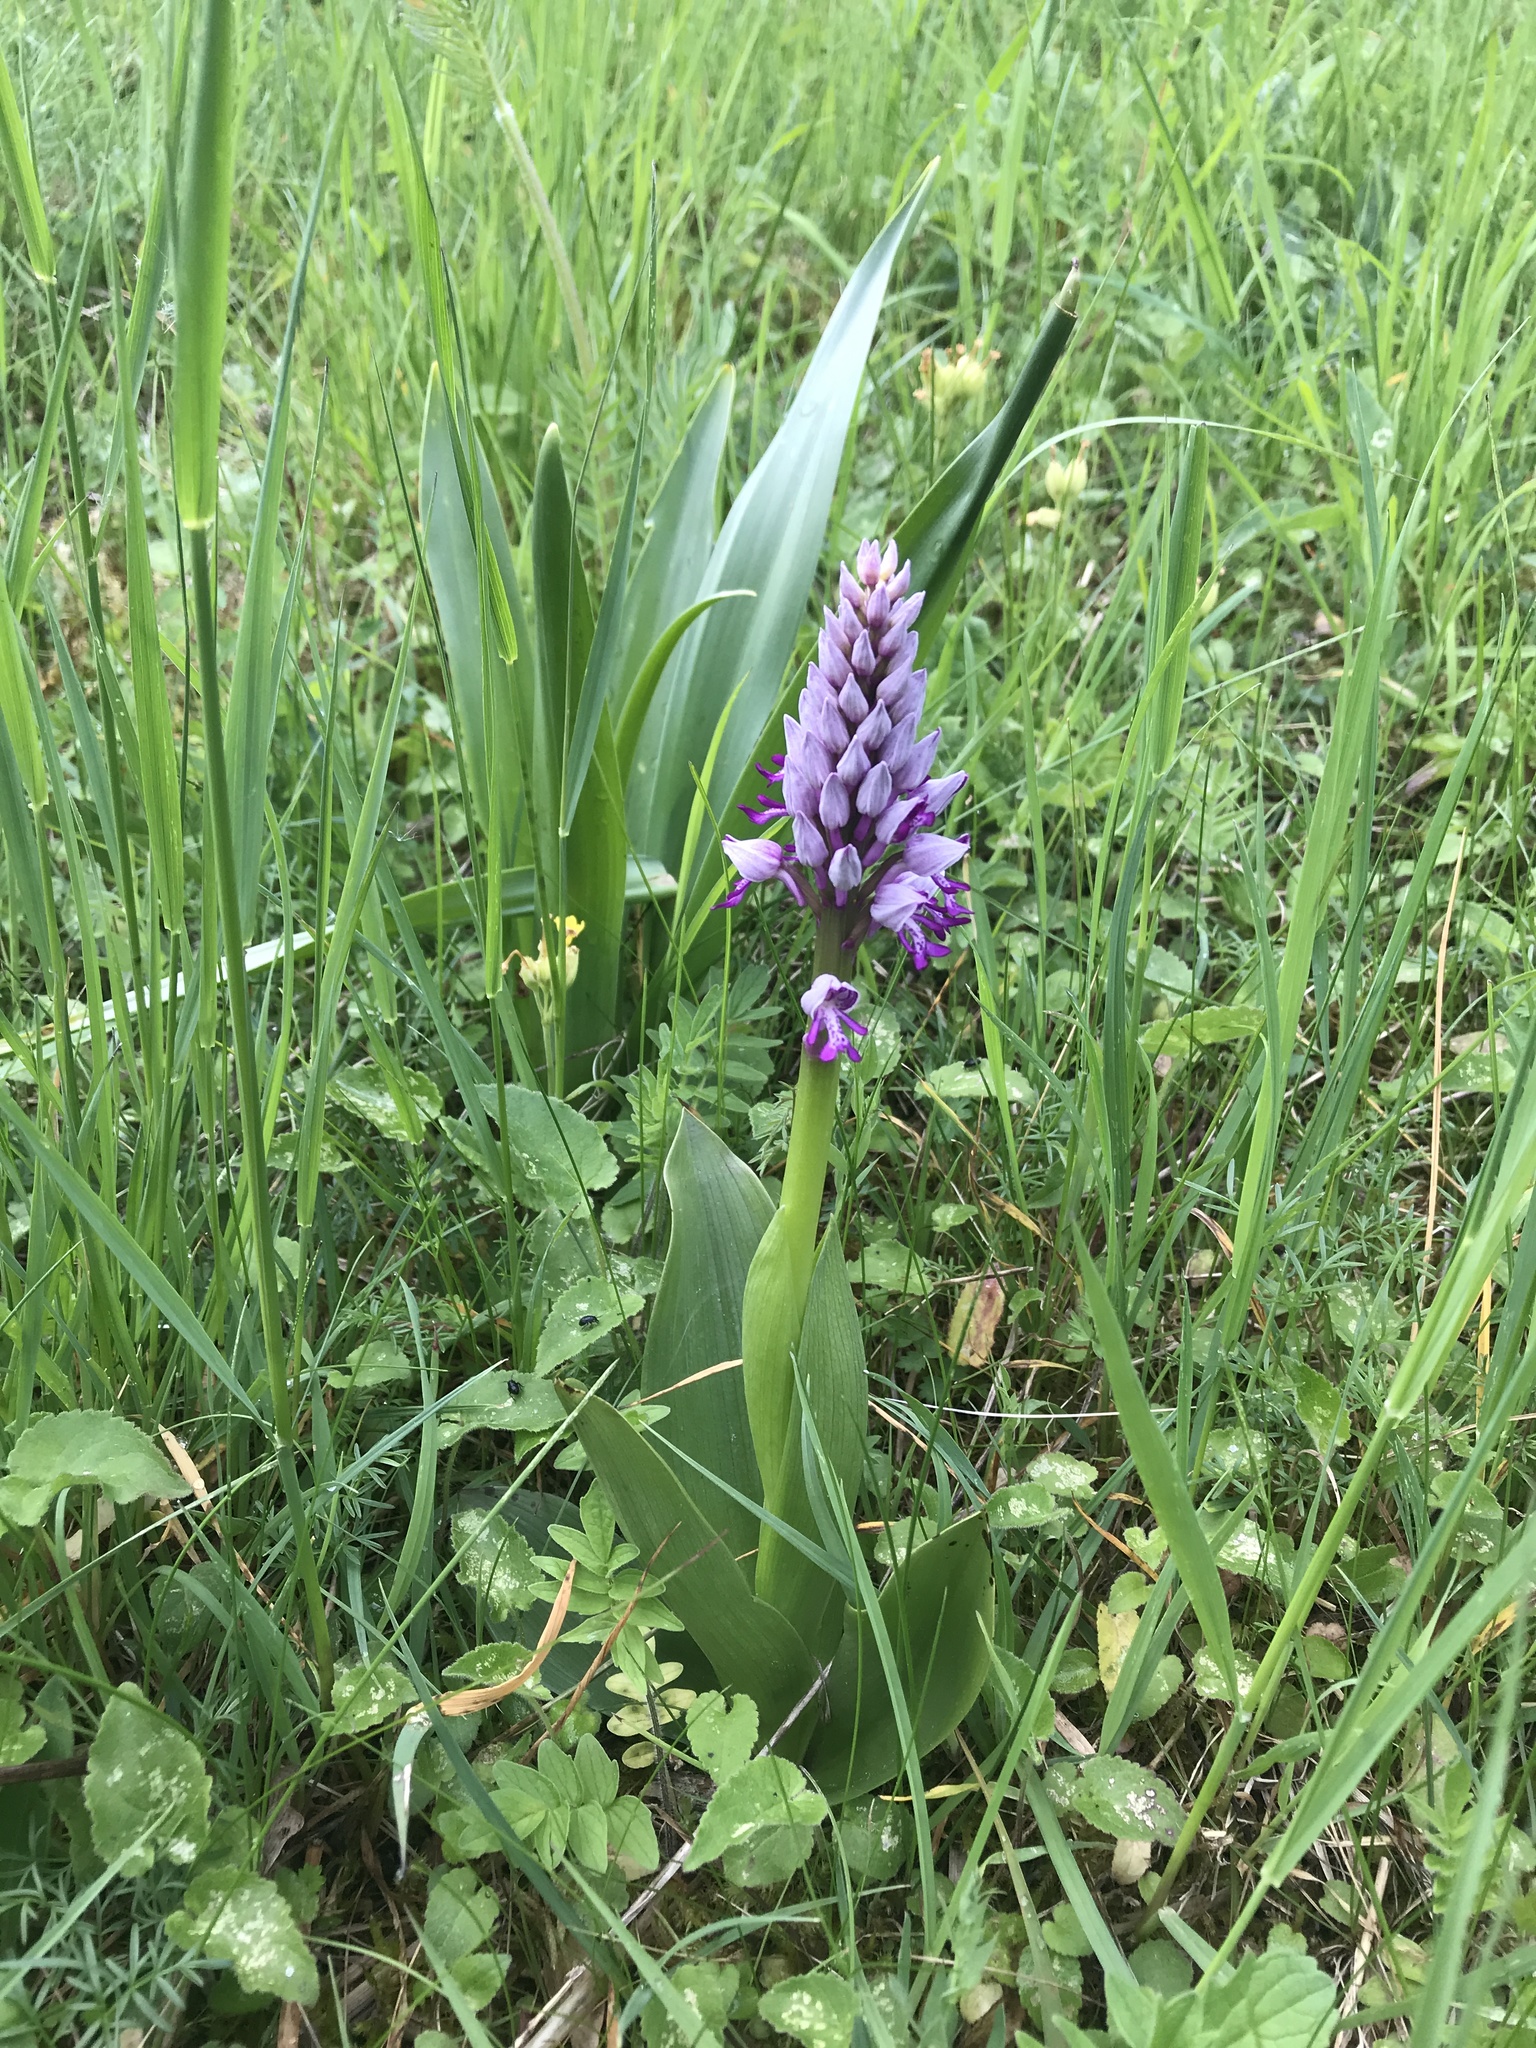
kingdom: Plantae
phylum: Tracheophyta
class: Liliopsida
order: Asparagales
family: Orchidaceae
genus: Orchis
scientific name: Orchis militaris
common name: Military orchid
